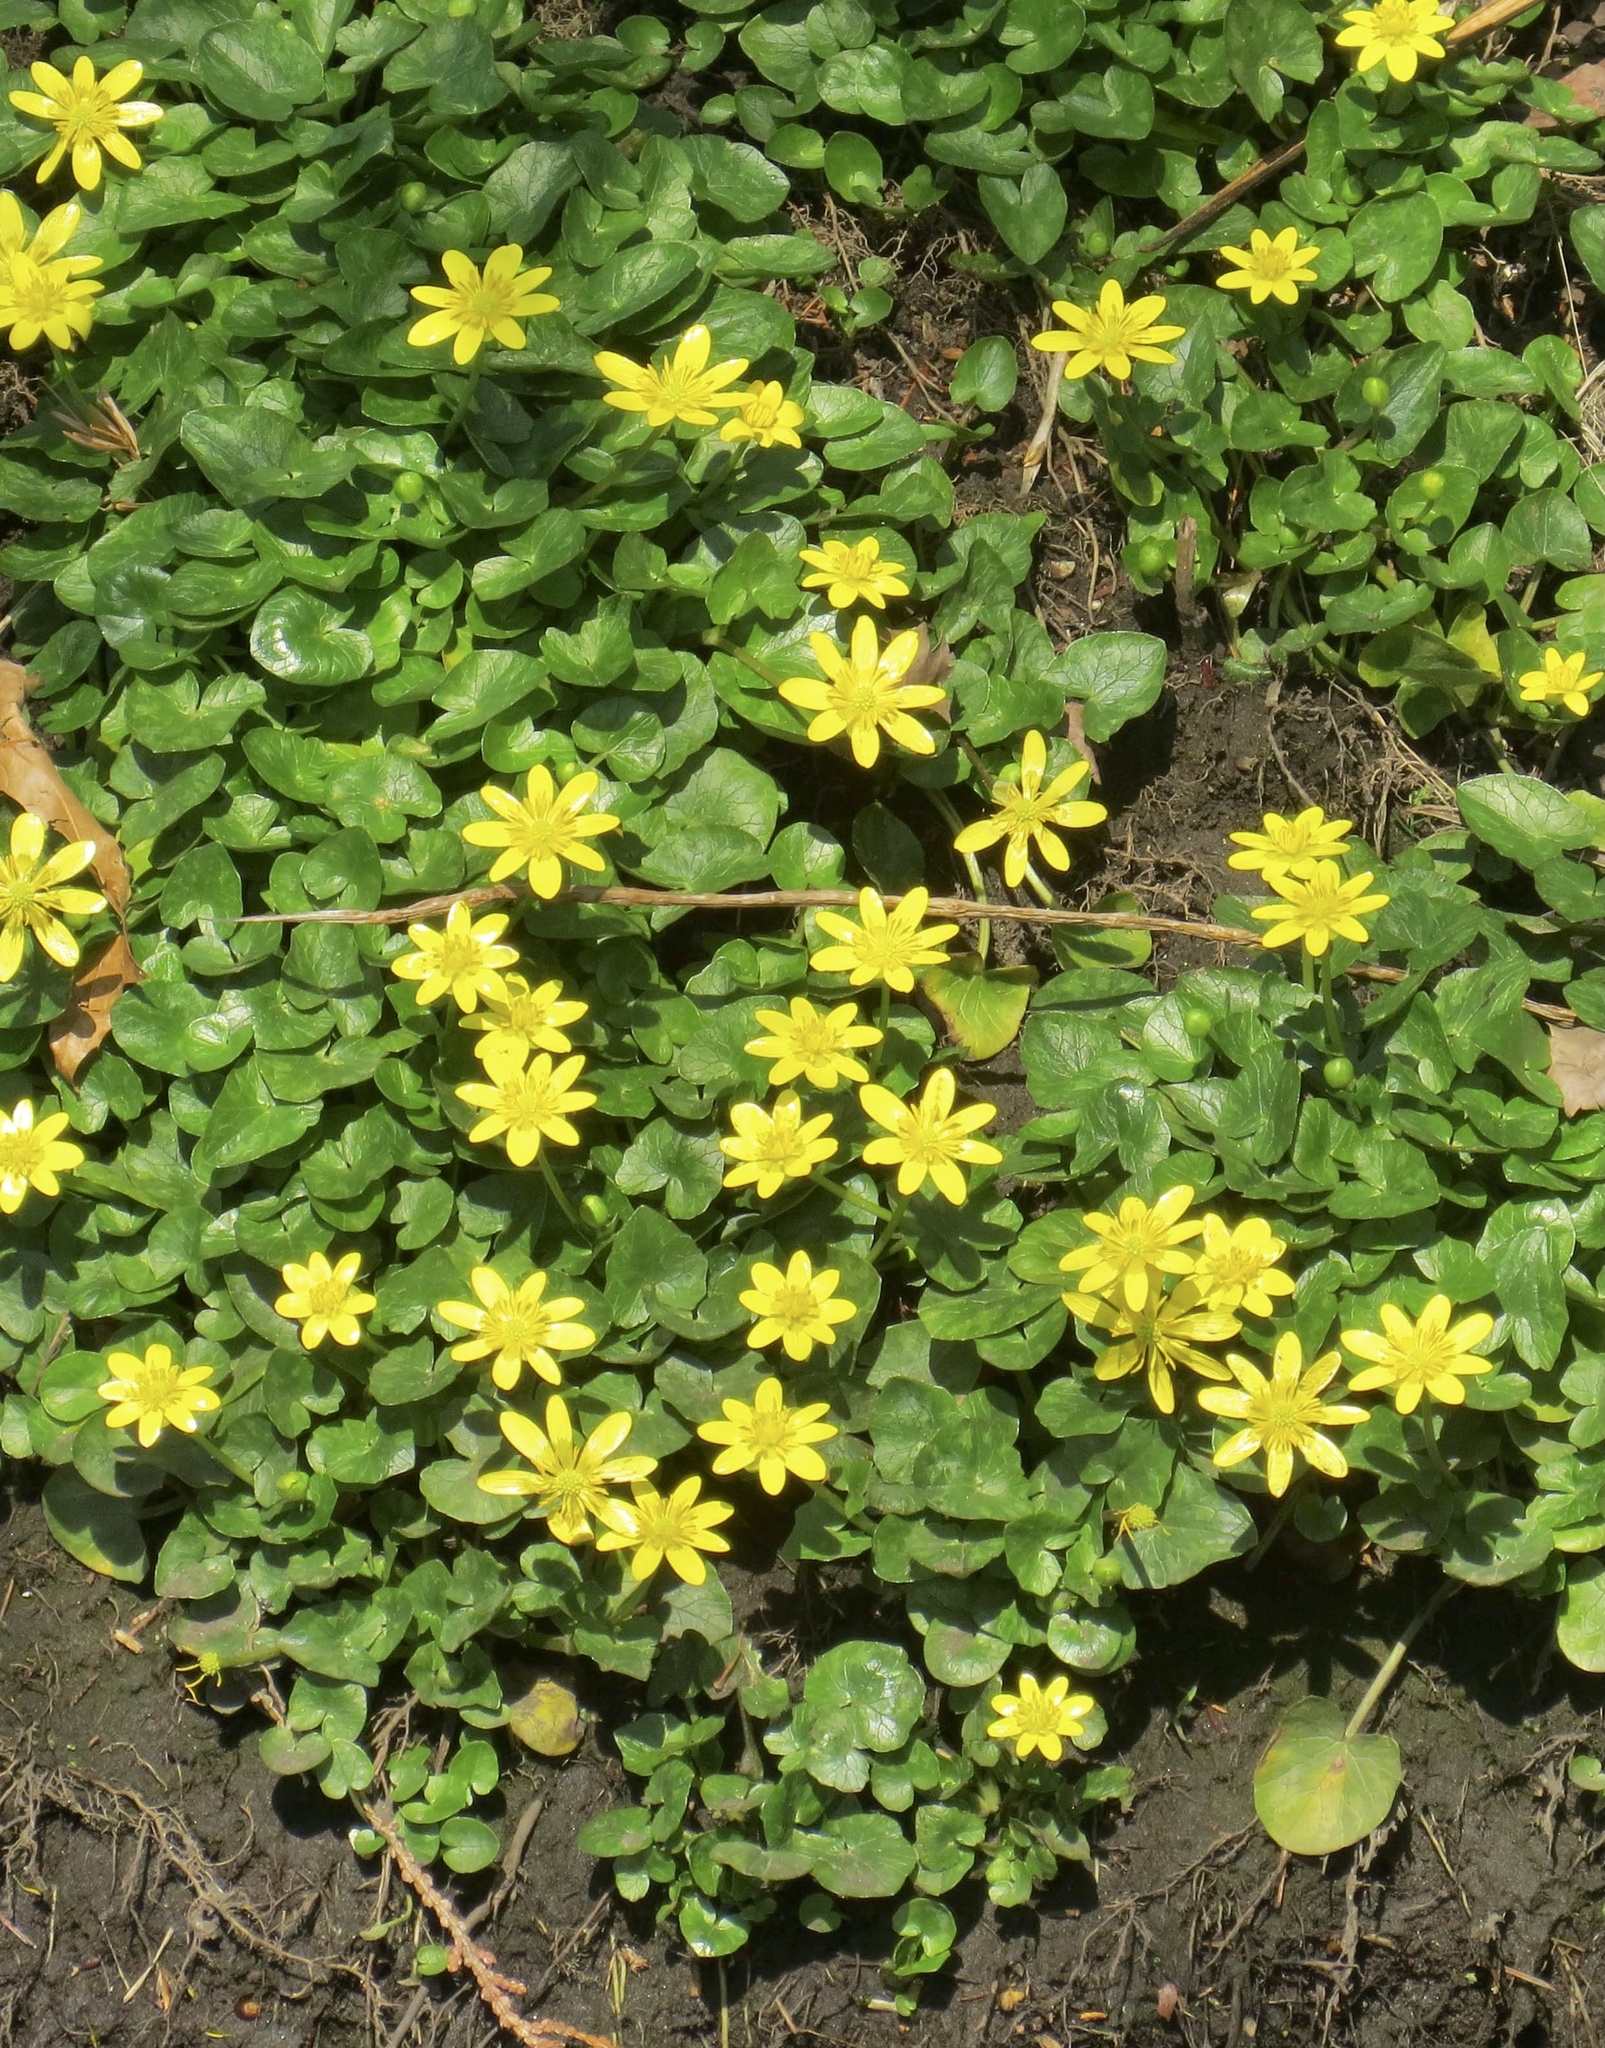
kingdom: Plantae
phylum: Tracheophyta
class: Magnoliopsida
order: Ranunculales
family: Ranunculaceae
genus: Ficaria
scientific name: Ficaria verna
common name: Lesser celandine
